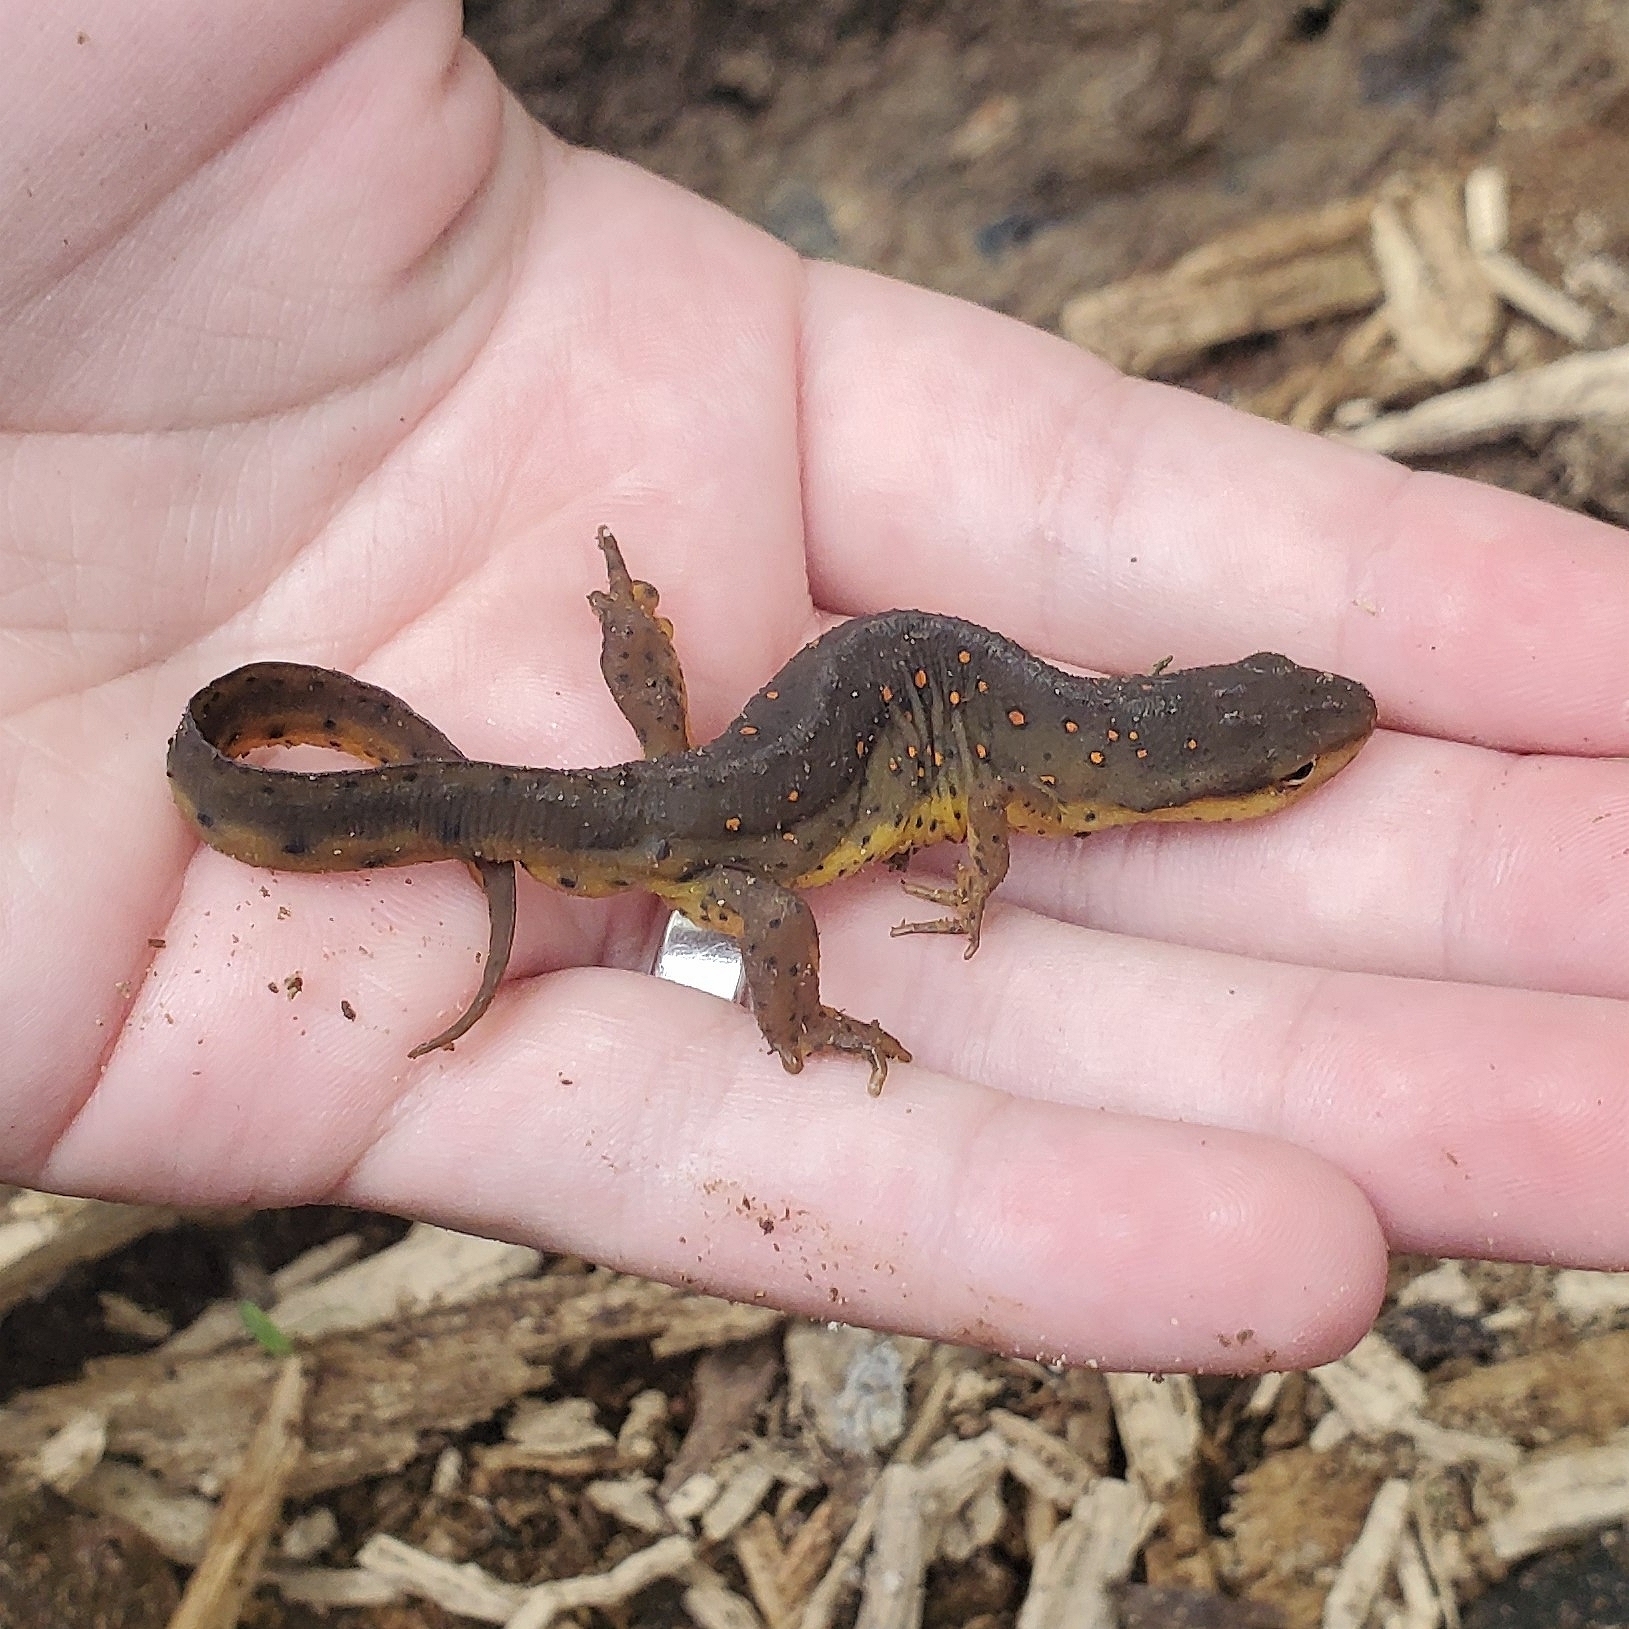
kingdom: Animalia
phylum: Chordata
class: Amphibia
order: Caudata
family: Salamandridae
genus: Notophthalmus
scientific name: Notophthalmus viridescens
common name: Eastern newt
